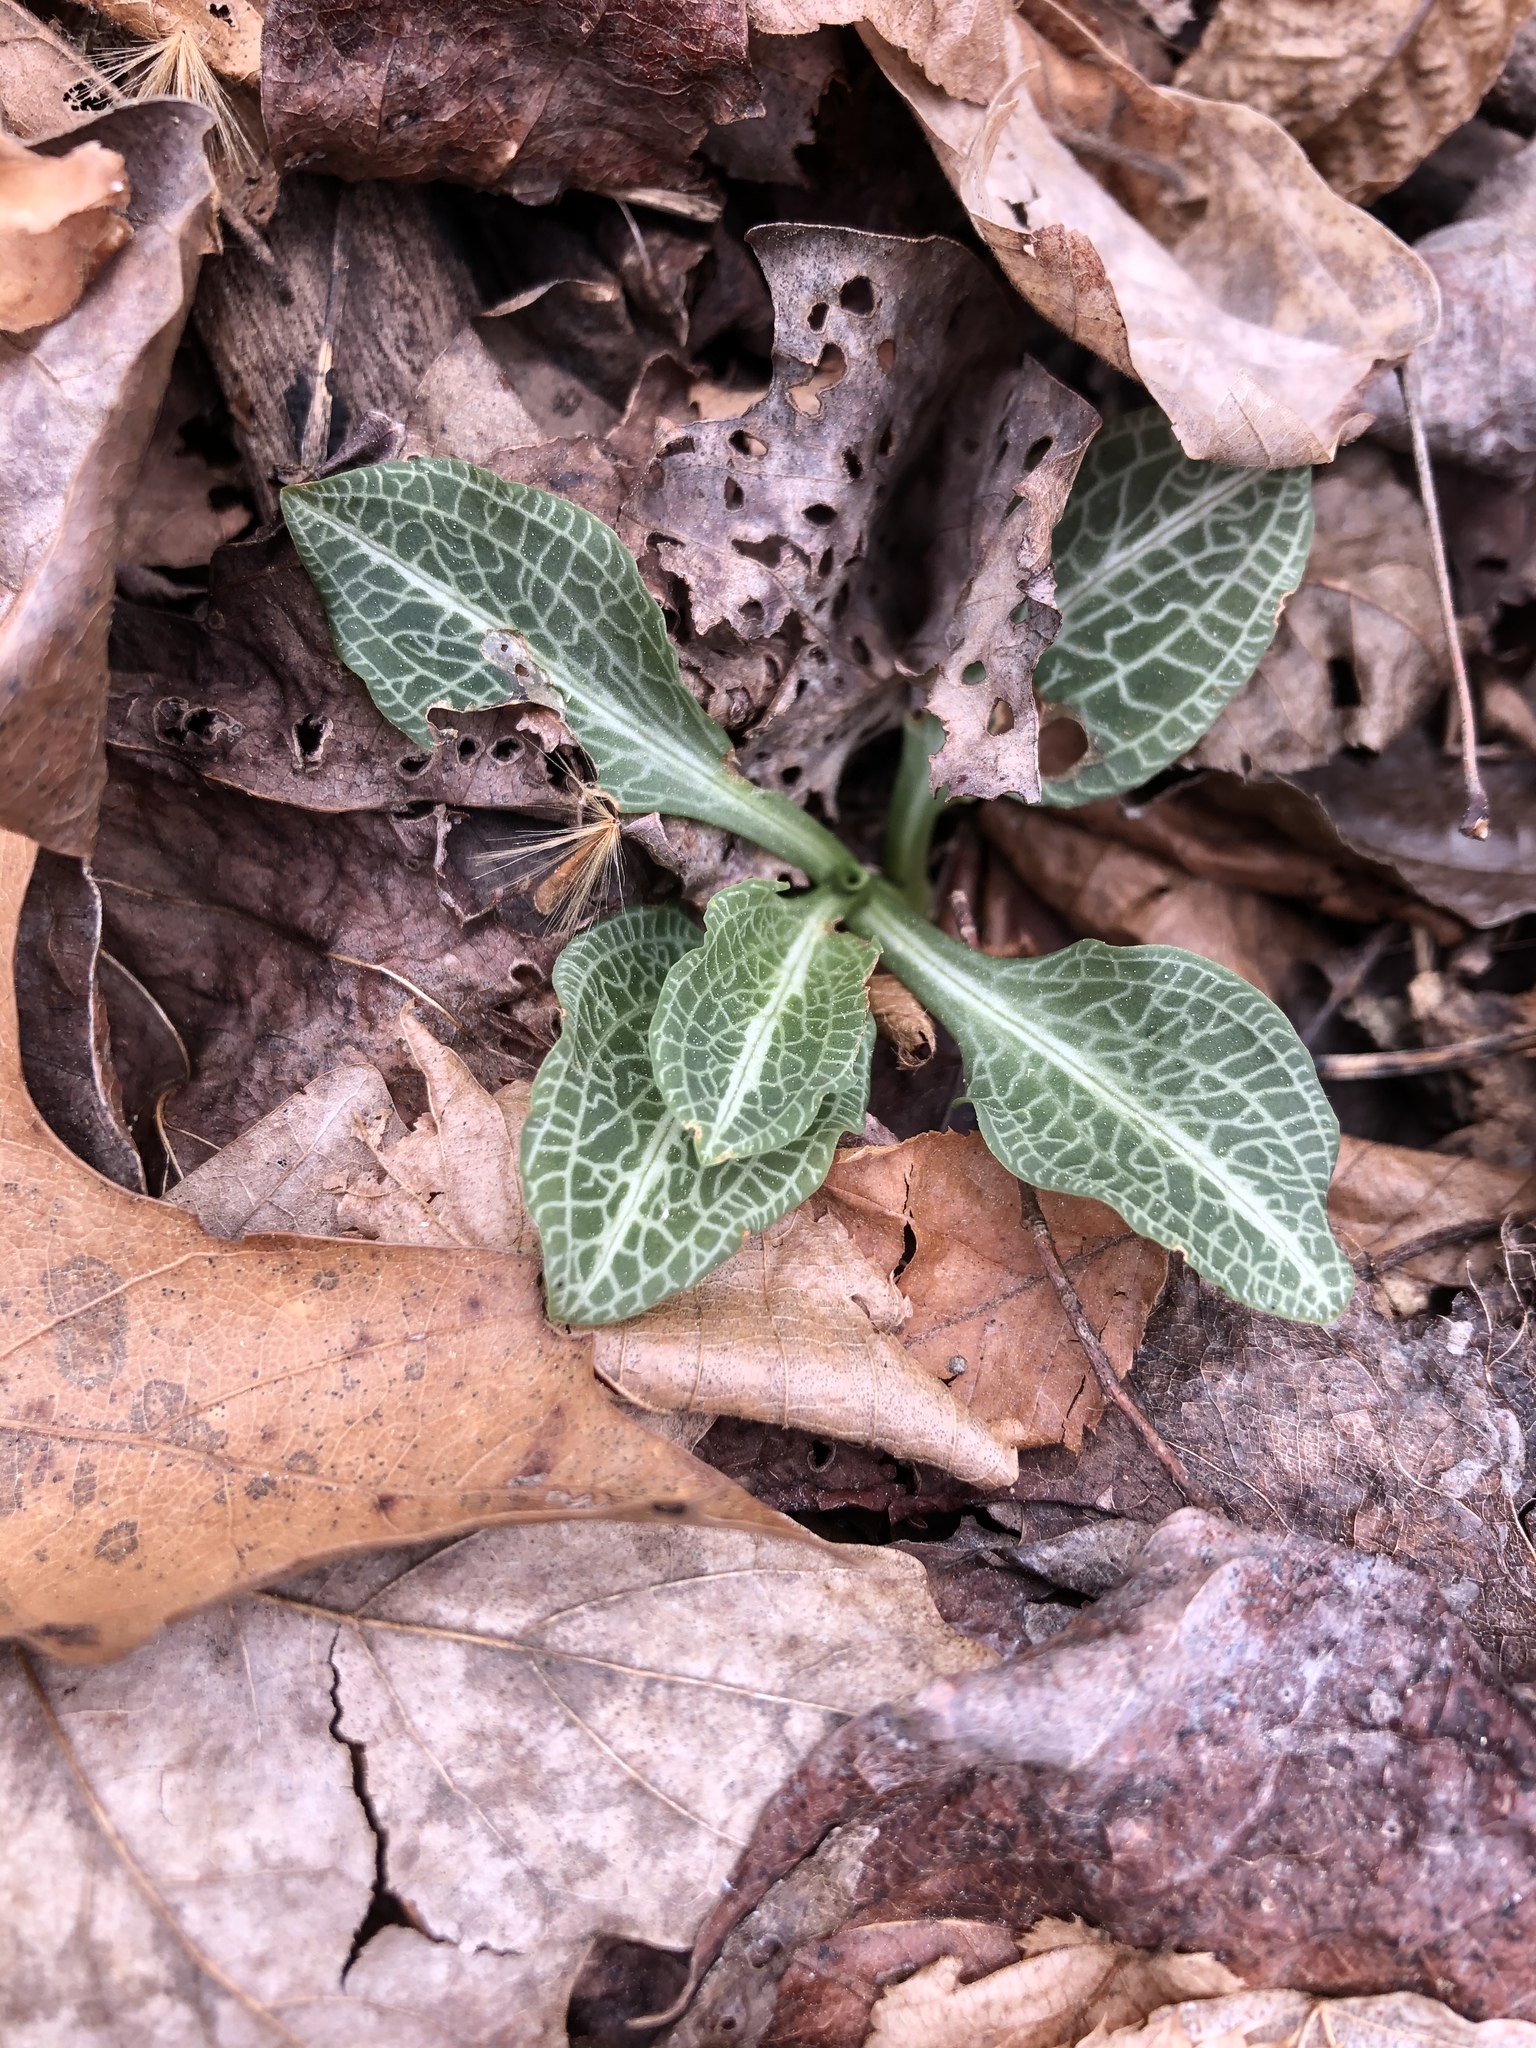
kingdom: Plantae
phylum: Tracheophyta
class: Liliopsida
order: Asparagales
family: Orchidaceae
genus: Goodyera
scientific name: Goodyera pubescens
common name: Downy rattlesnake-plantain
